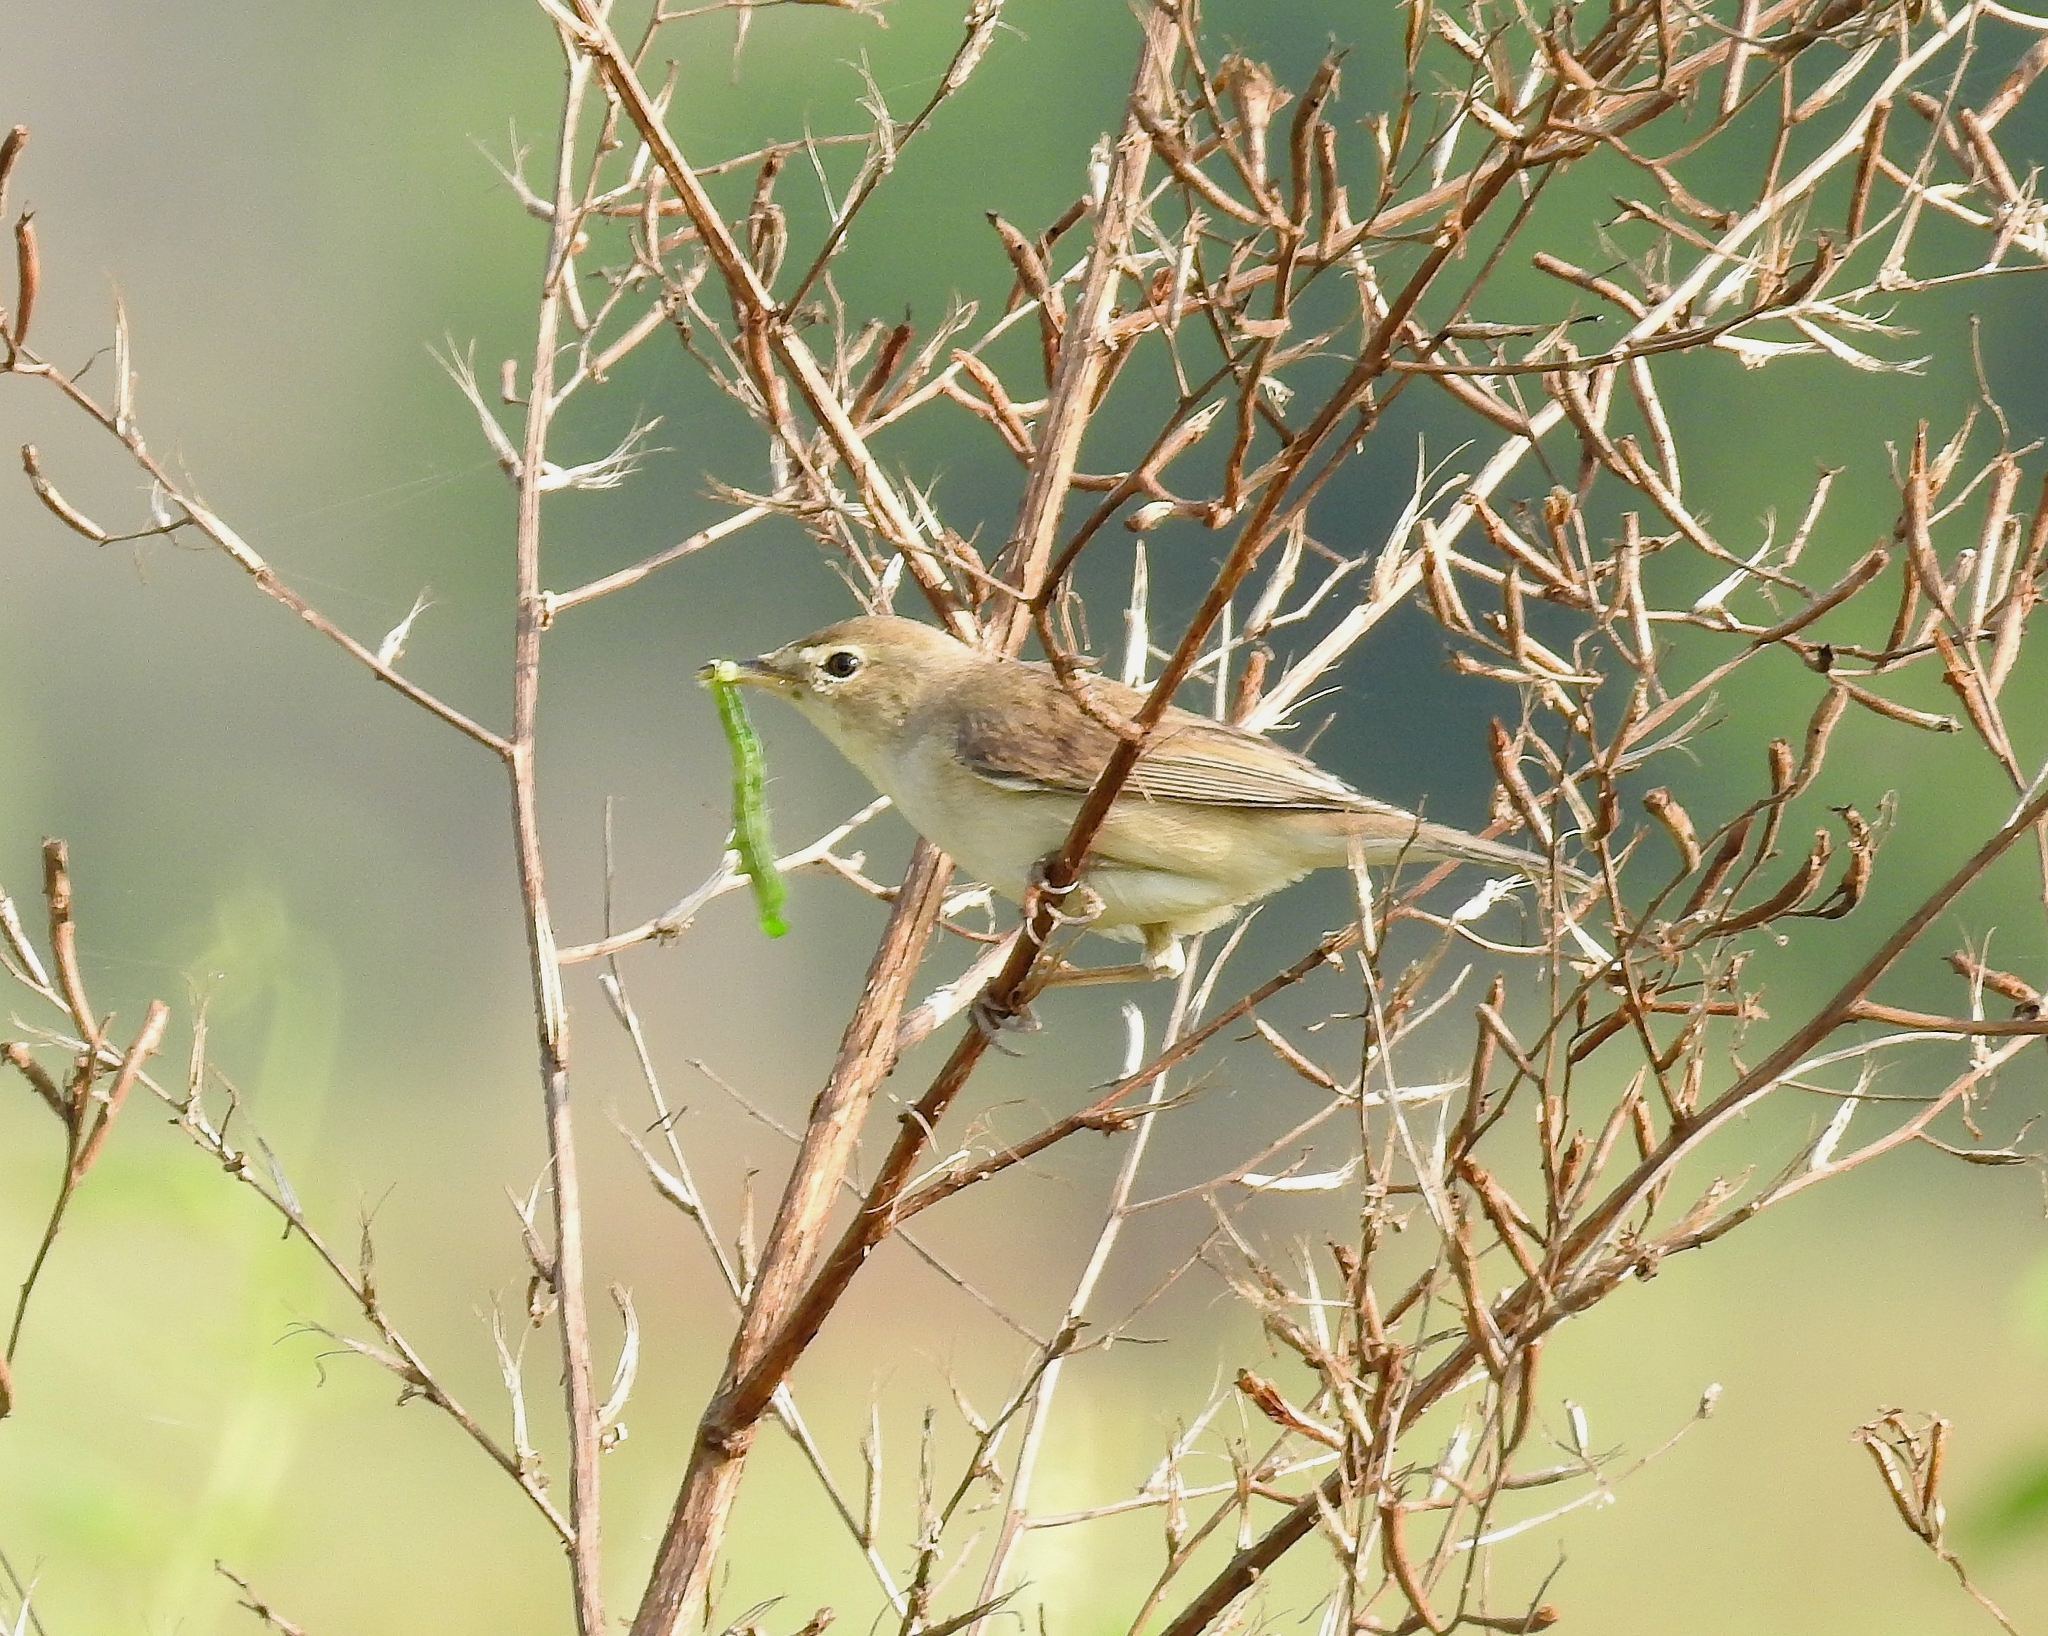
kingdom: Animalia
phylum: Chordata
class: Aves
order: Passeriformes
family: Acrocephalidae
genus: Iduna
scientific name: Iduna caligata
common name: Booted warbler
